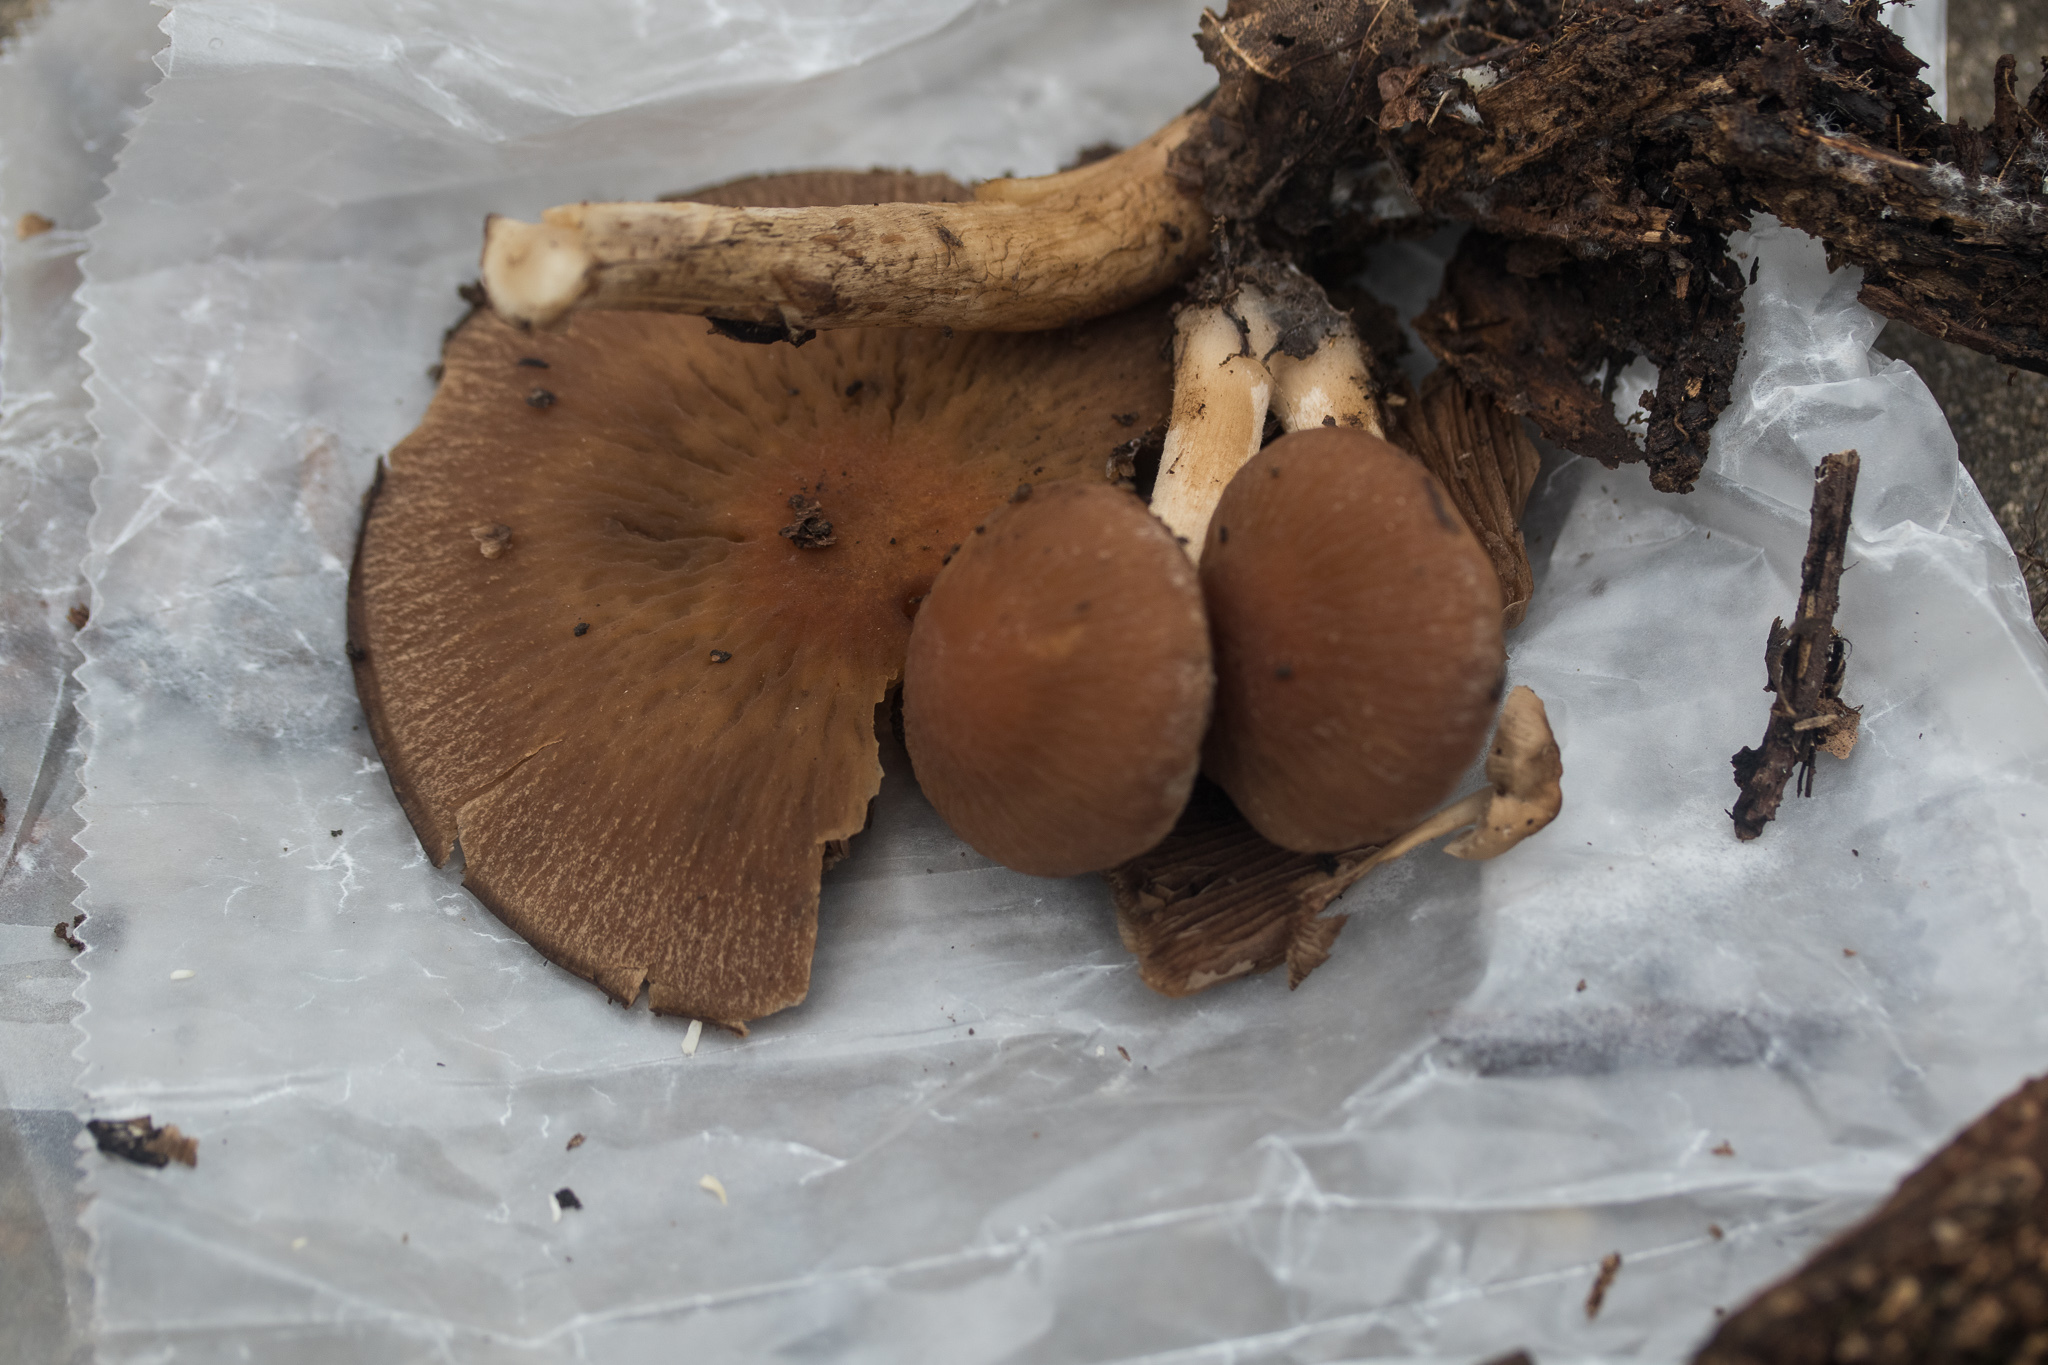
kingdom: Fungi
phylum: Basidiomycota
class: Agaricomycetes
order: Agaricales
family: Psathyrellaceae
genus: Typhrasa
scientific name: Typhrasa gossypina
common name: Wrinkled psathyrella
